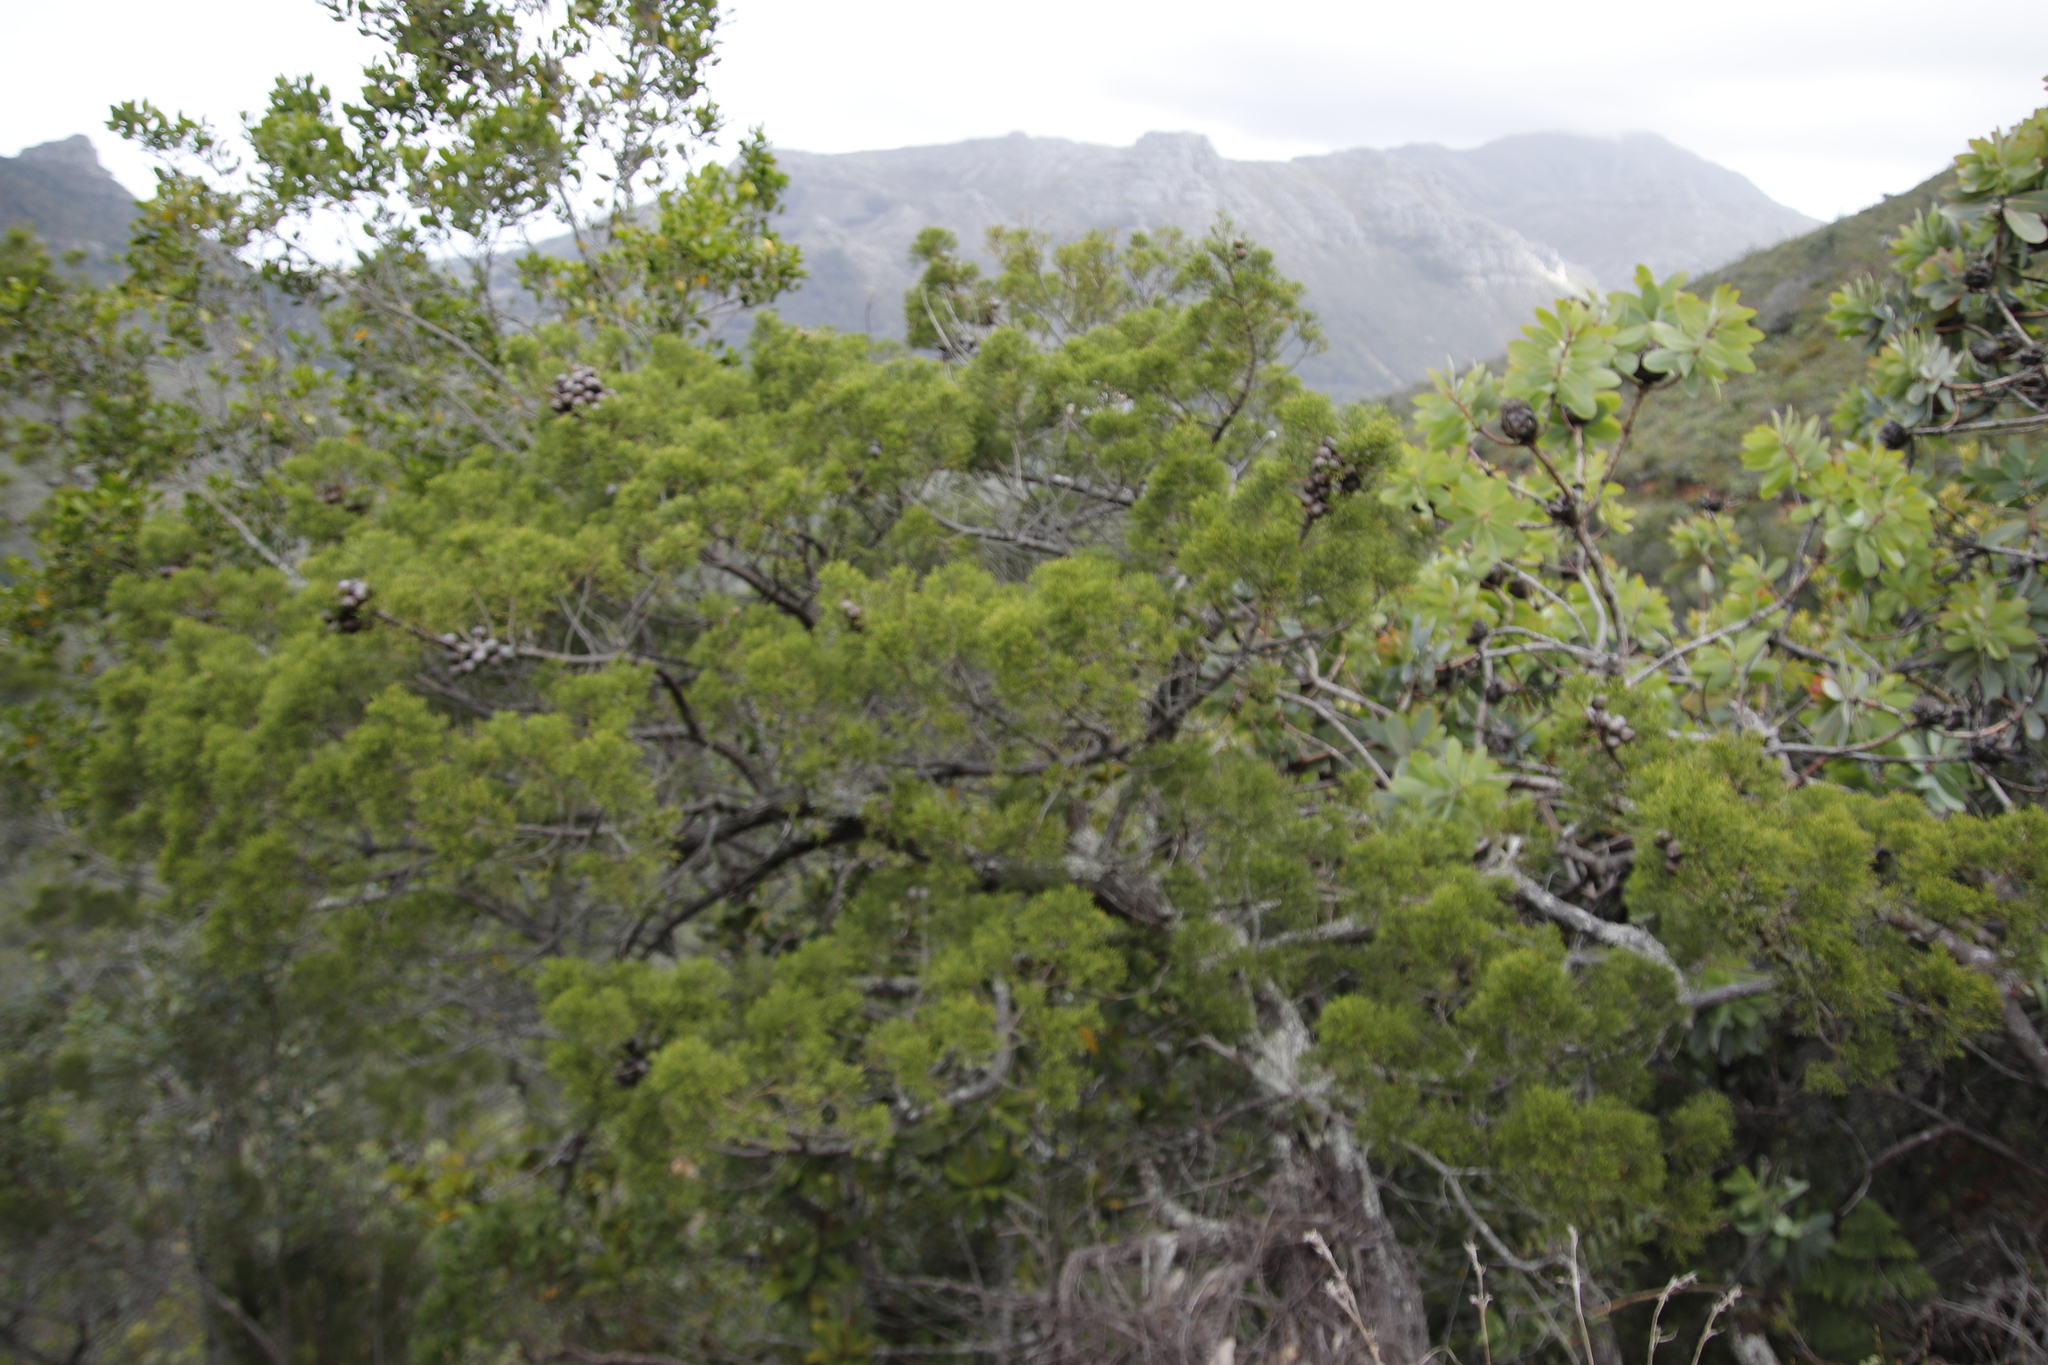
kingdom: Plantae
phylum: Tracheophyta
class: Pinopsida
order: Pinales
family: Cupressaceae
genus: Widdringtonia
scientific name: Widdringtonia nodiflora
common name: Cape cypress
